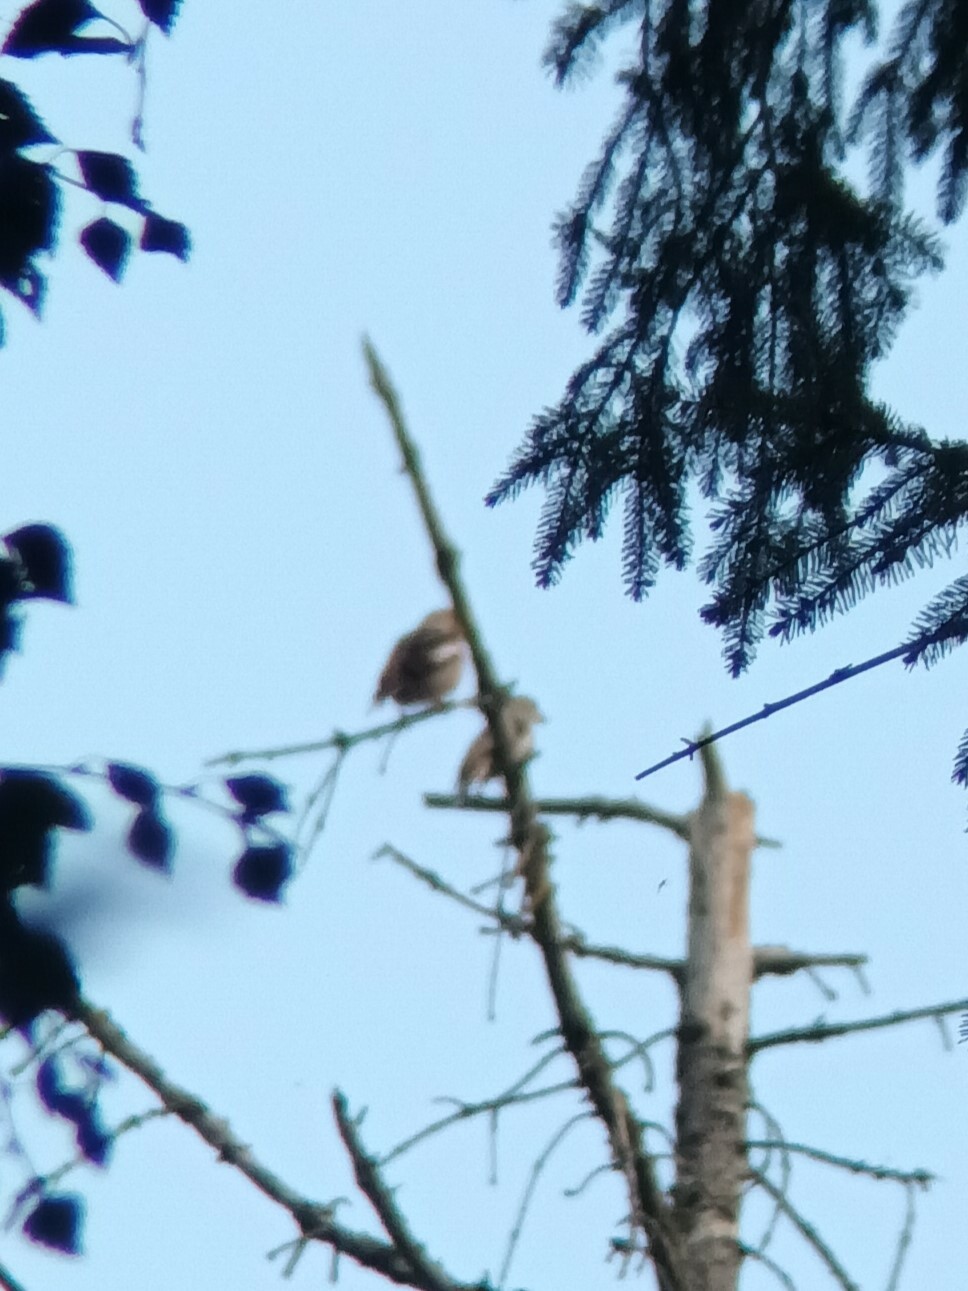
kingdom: Animalia
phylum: Chordata
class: Aves
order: Passeriformes
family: Fringillidae
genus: Coccothraustes
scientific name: Coccothraustes coccothraustes
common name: Hawfinch
